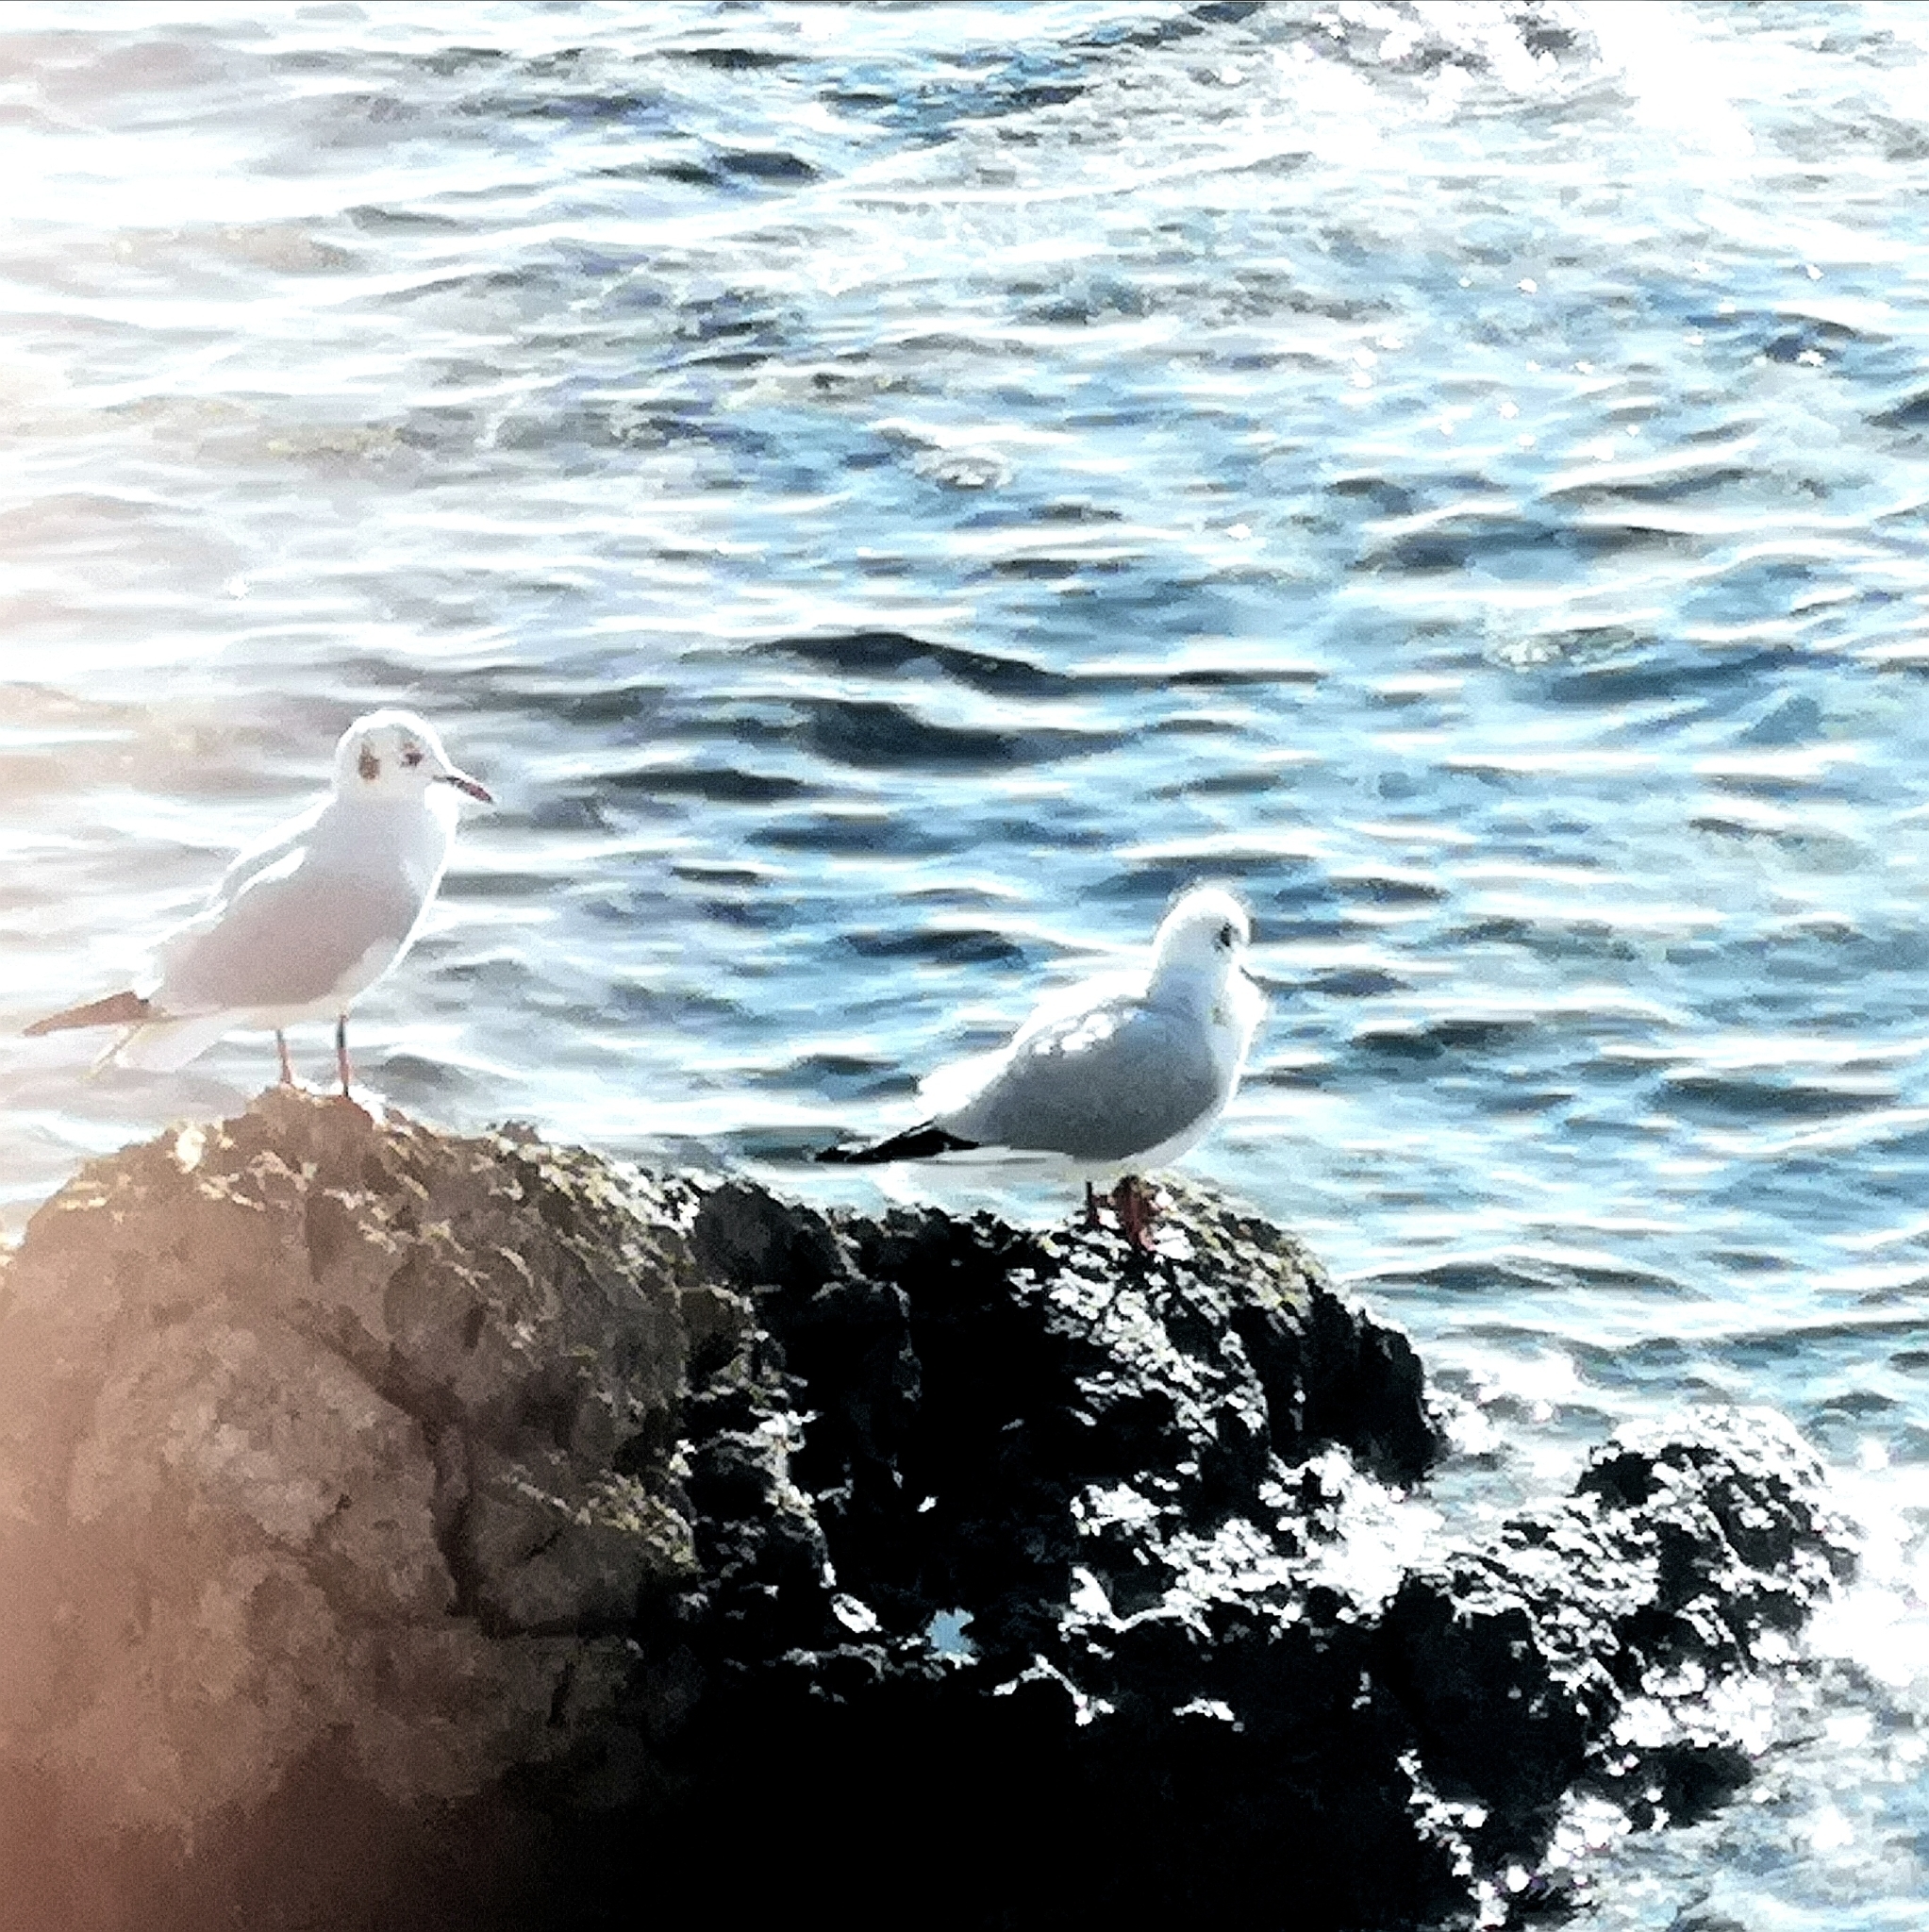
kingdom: Animalia
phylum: Chordata
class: Aves
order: Charadriiformes
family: Laridae
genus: Chroicocephalus
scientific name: Chroicocephalus ridibundus
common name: Black-headed gull
